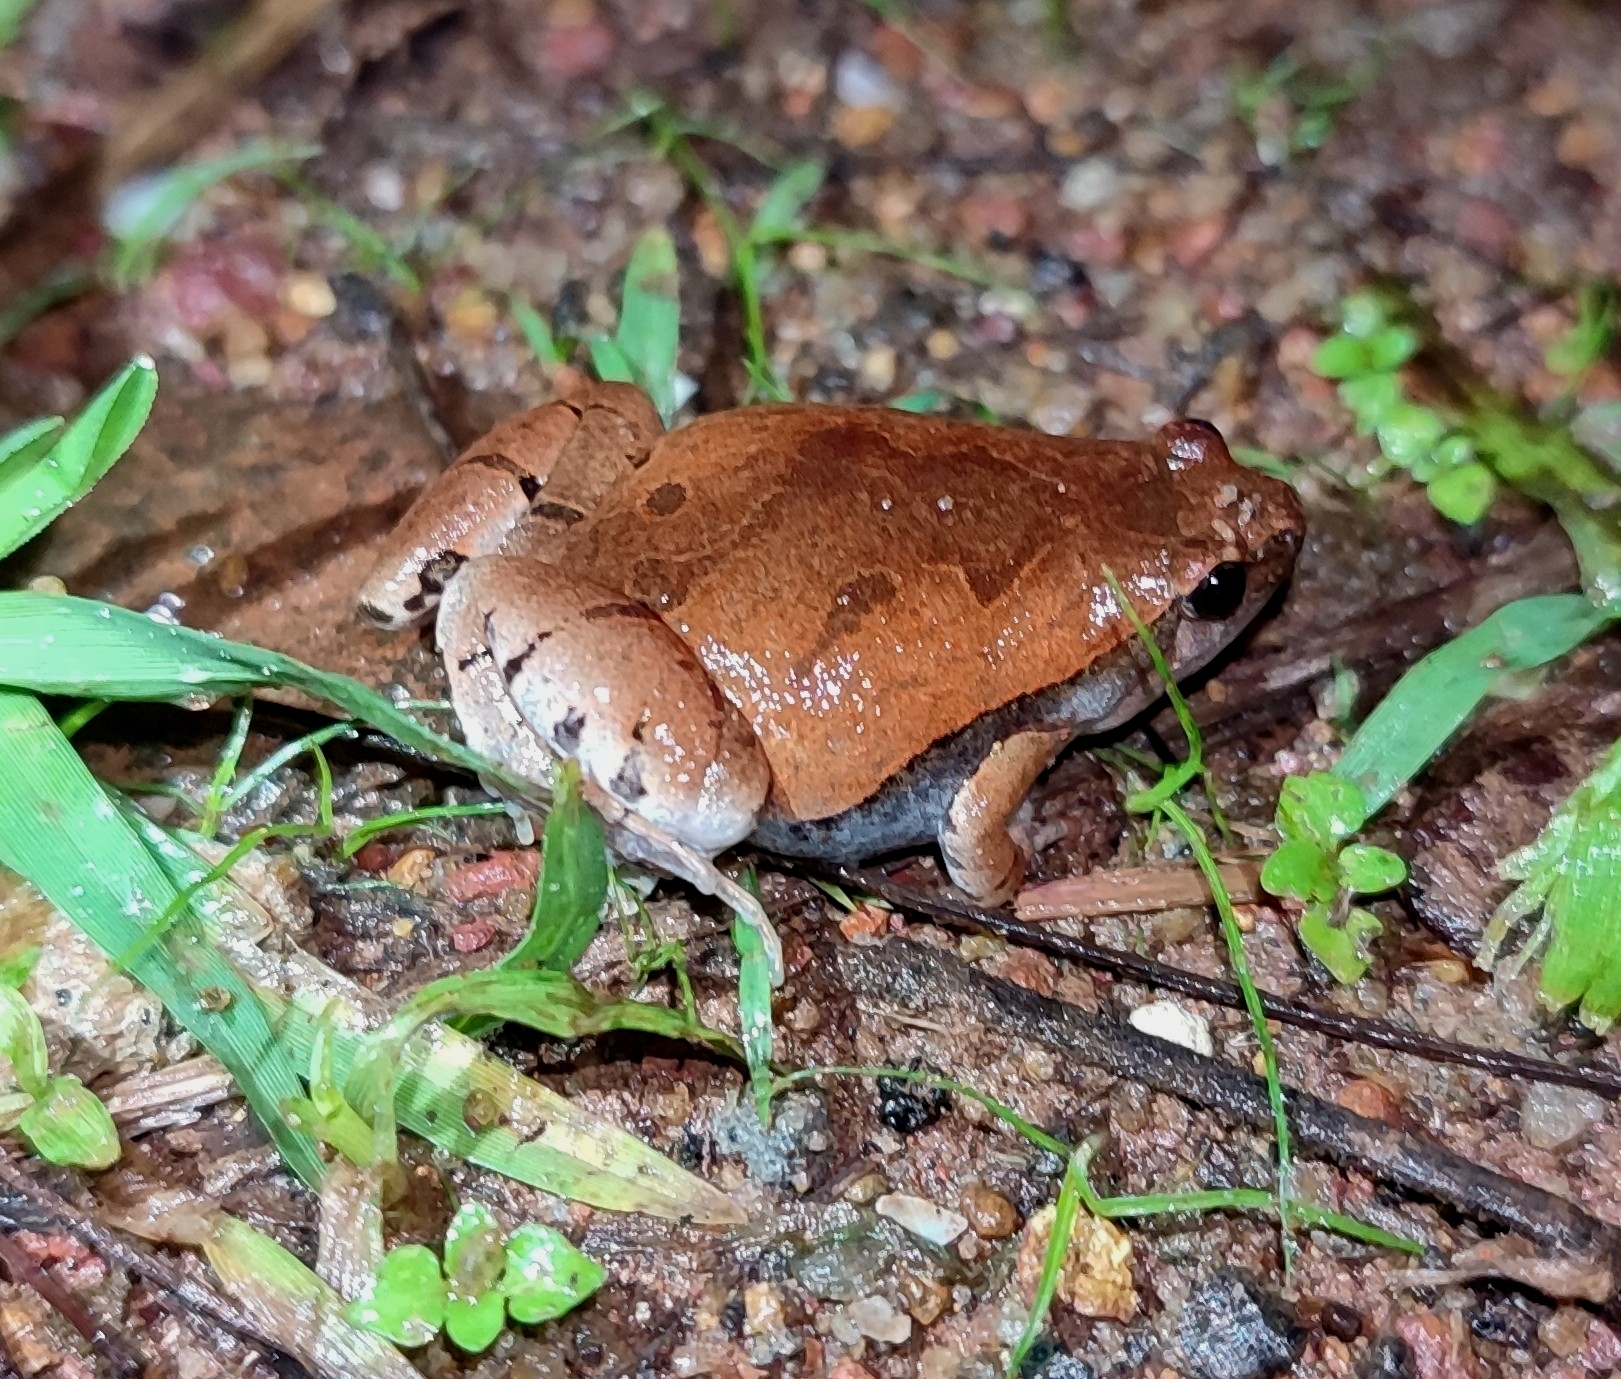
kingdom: Animalia
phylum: Chordata
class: Amphibia
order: Anura
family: Microhylidae
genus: Microhyla
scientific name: Microhyla ornata
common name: Ant frog
